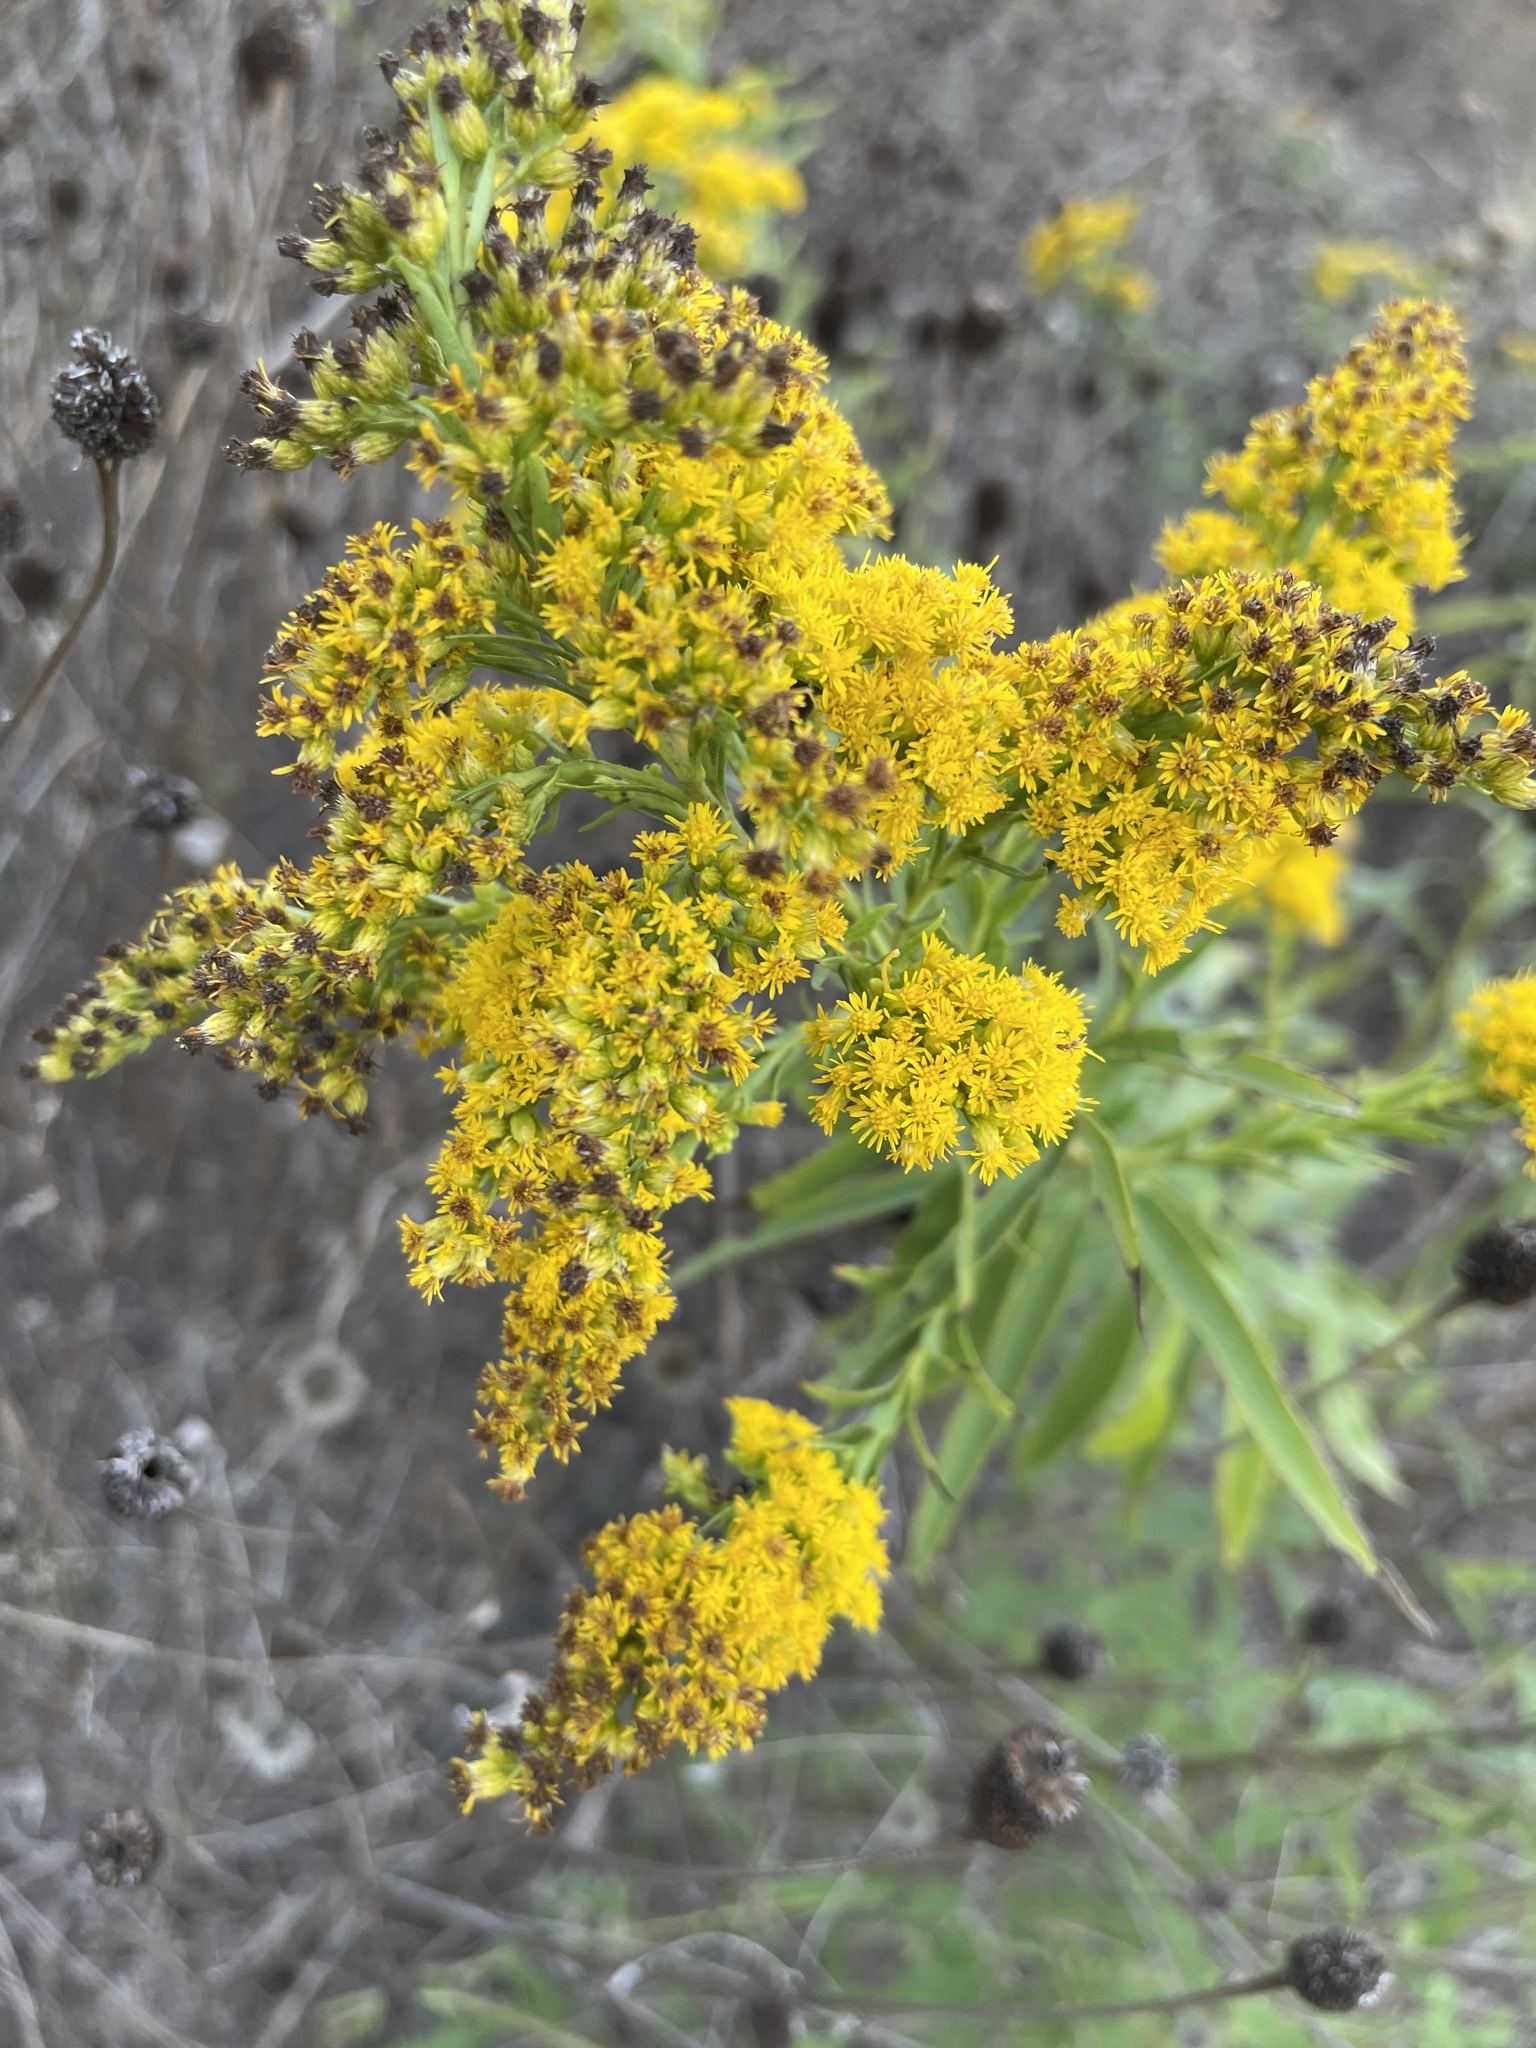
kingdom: Plantae
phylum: Tracheophyta
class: Magnoliopsida
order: Asterales
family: Asteraceae
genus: Solidago
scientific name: Solidago altissima
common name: Late goldenrod
